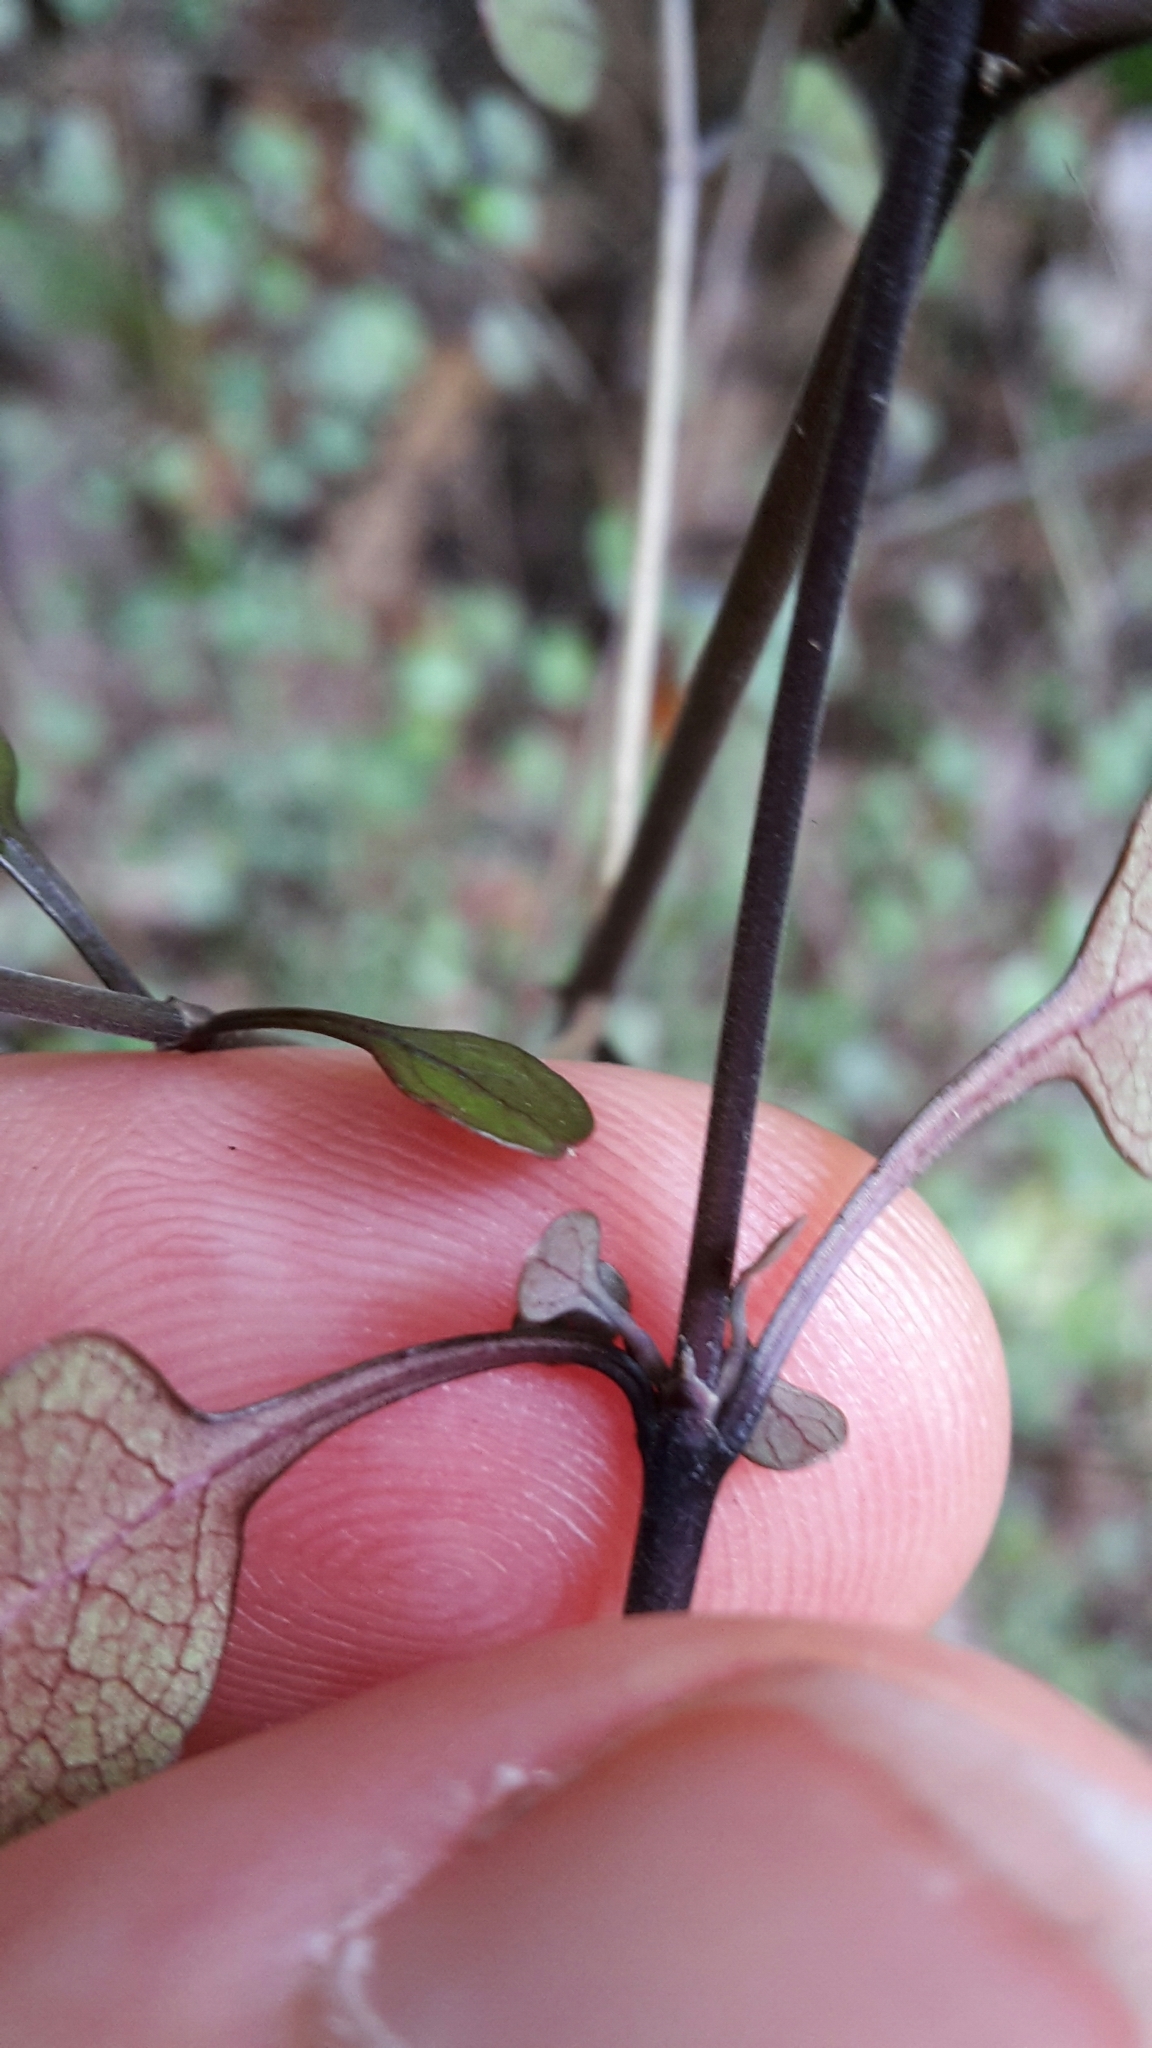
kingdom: Plantae
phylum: Tracheophyta
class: Magnoliopsida
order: Gentianales
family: Rubiaceae
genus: Coprosma
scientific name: Coprosma arborea
